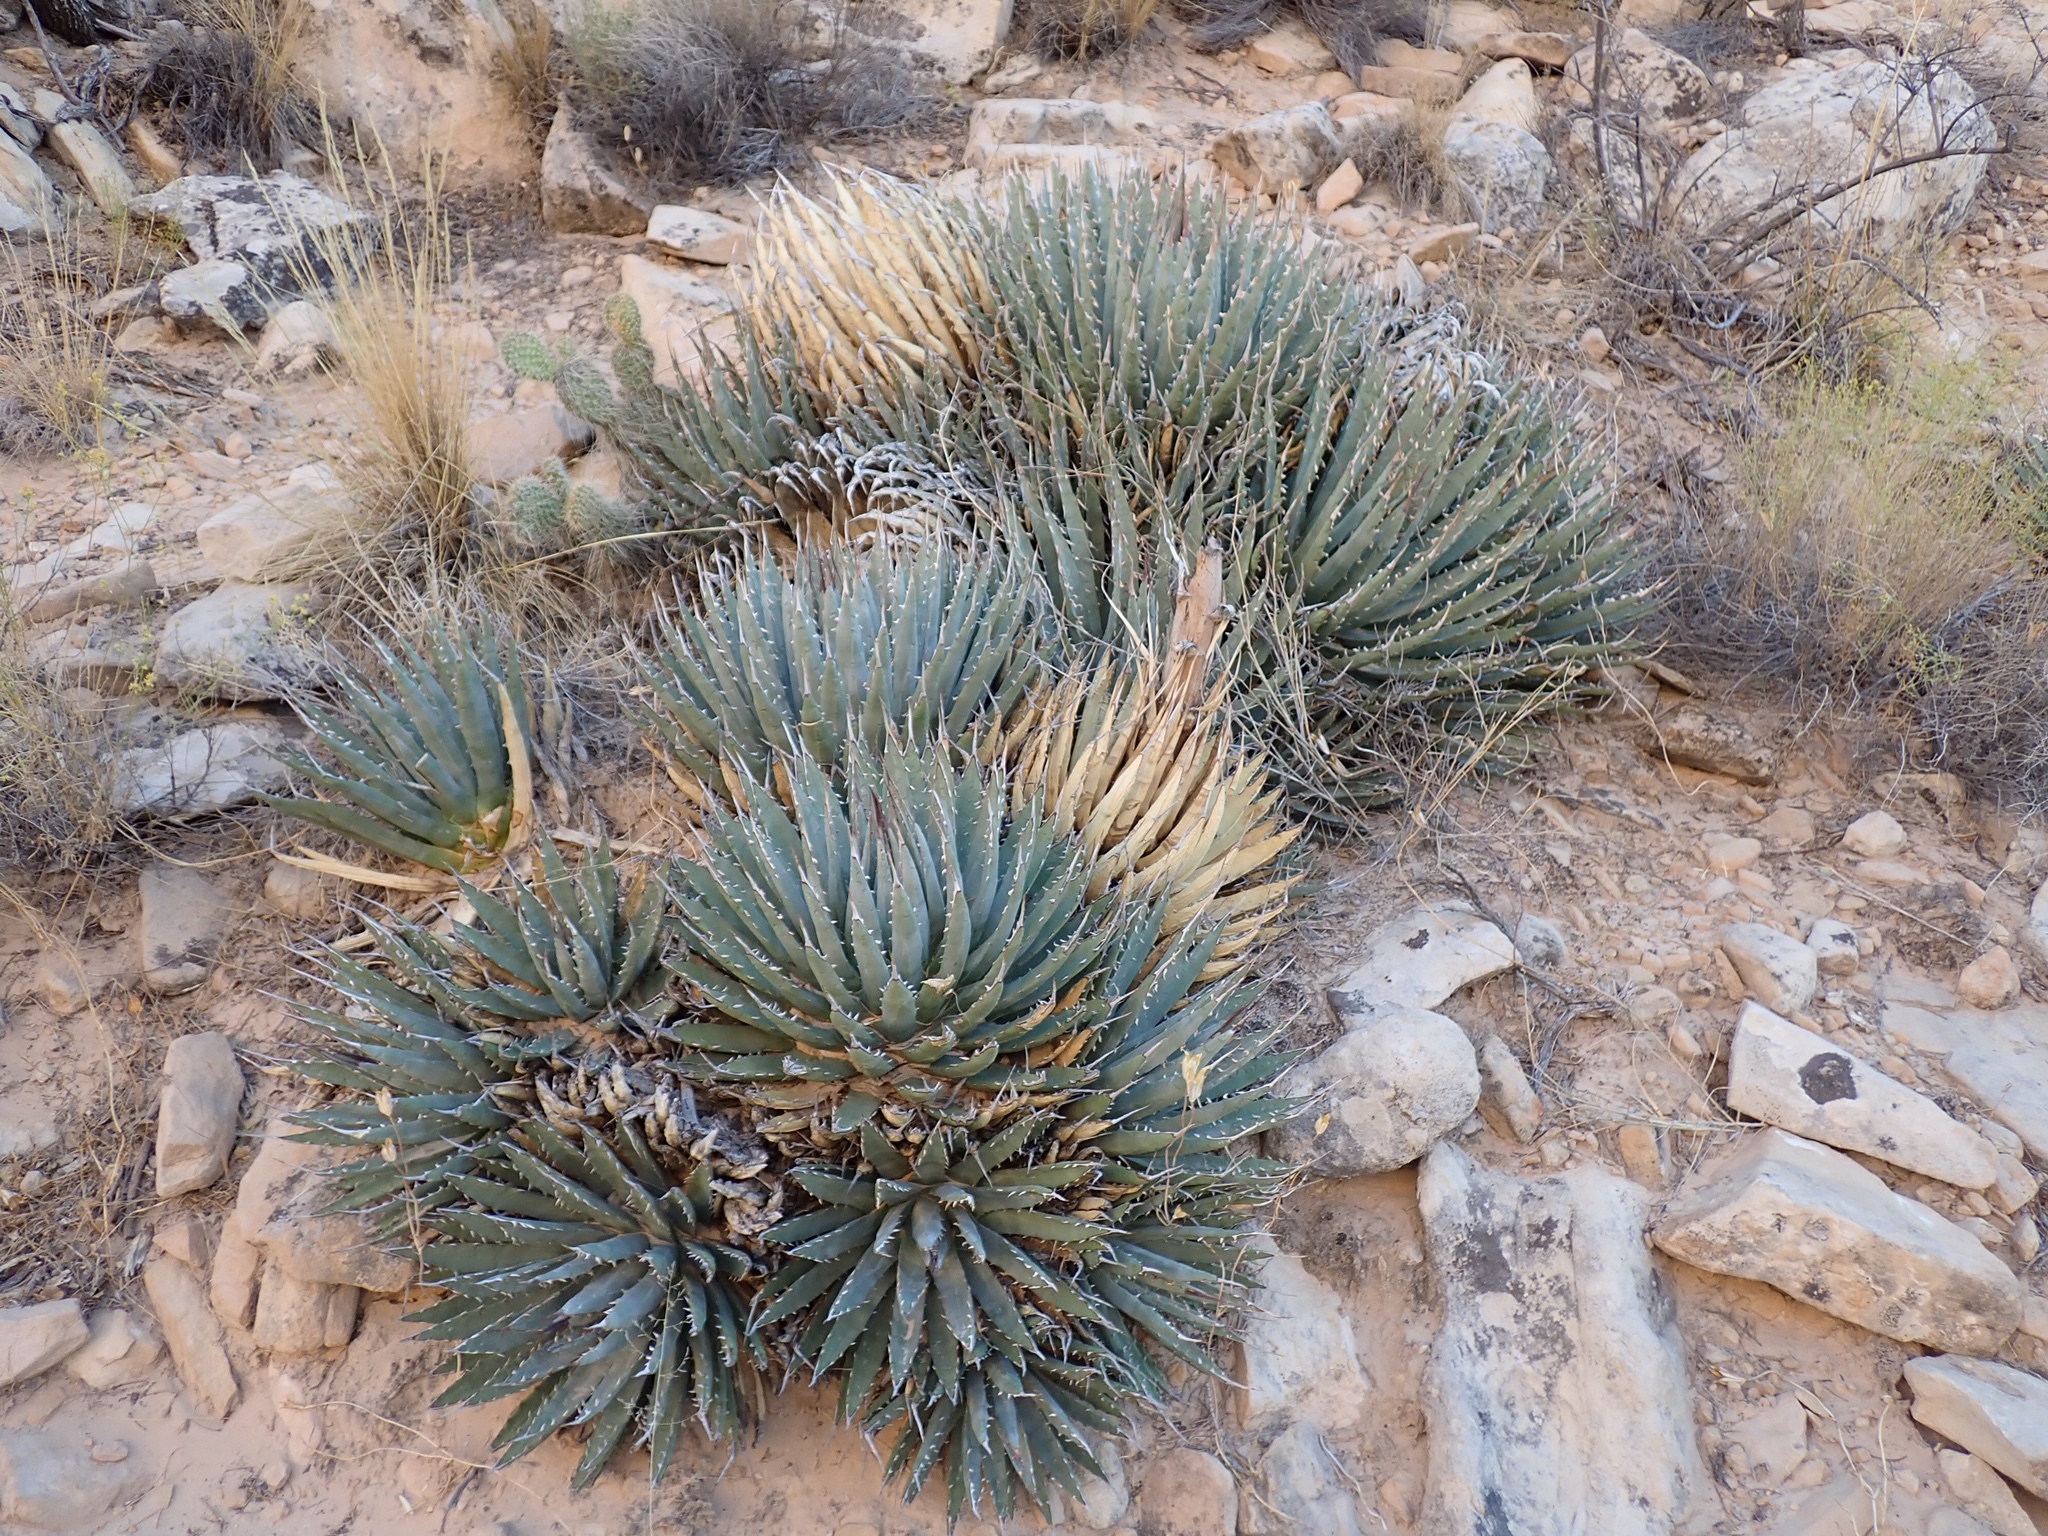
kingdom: Plantae
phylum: Tracheophyta
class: Liliopsida
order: Asparagales
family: Asparagaceae
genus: Agave
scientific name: Agave utahensis
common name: Utah agave
